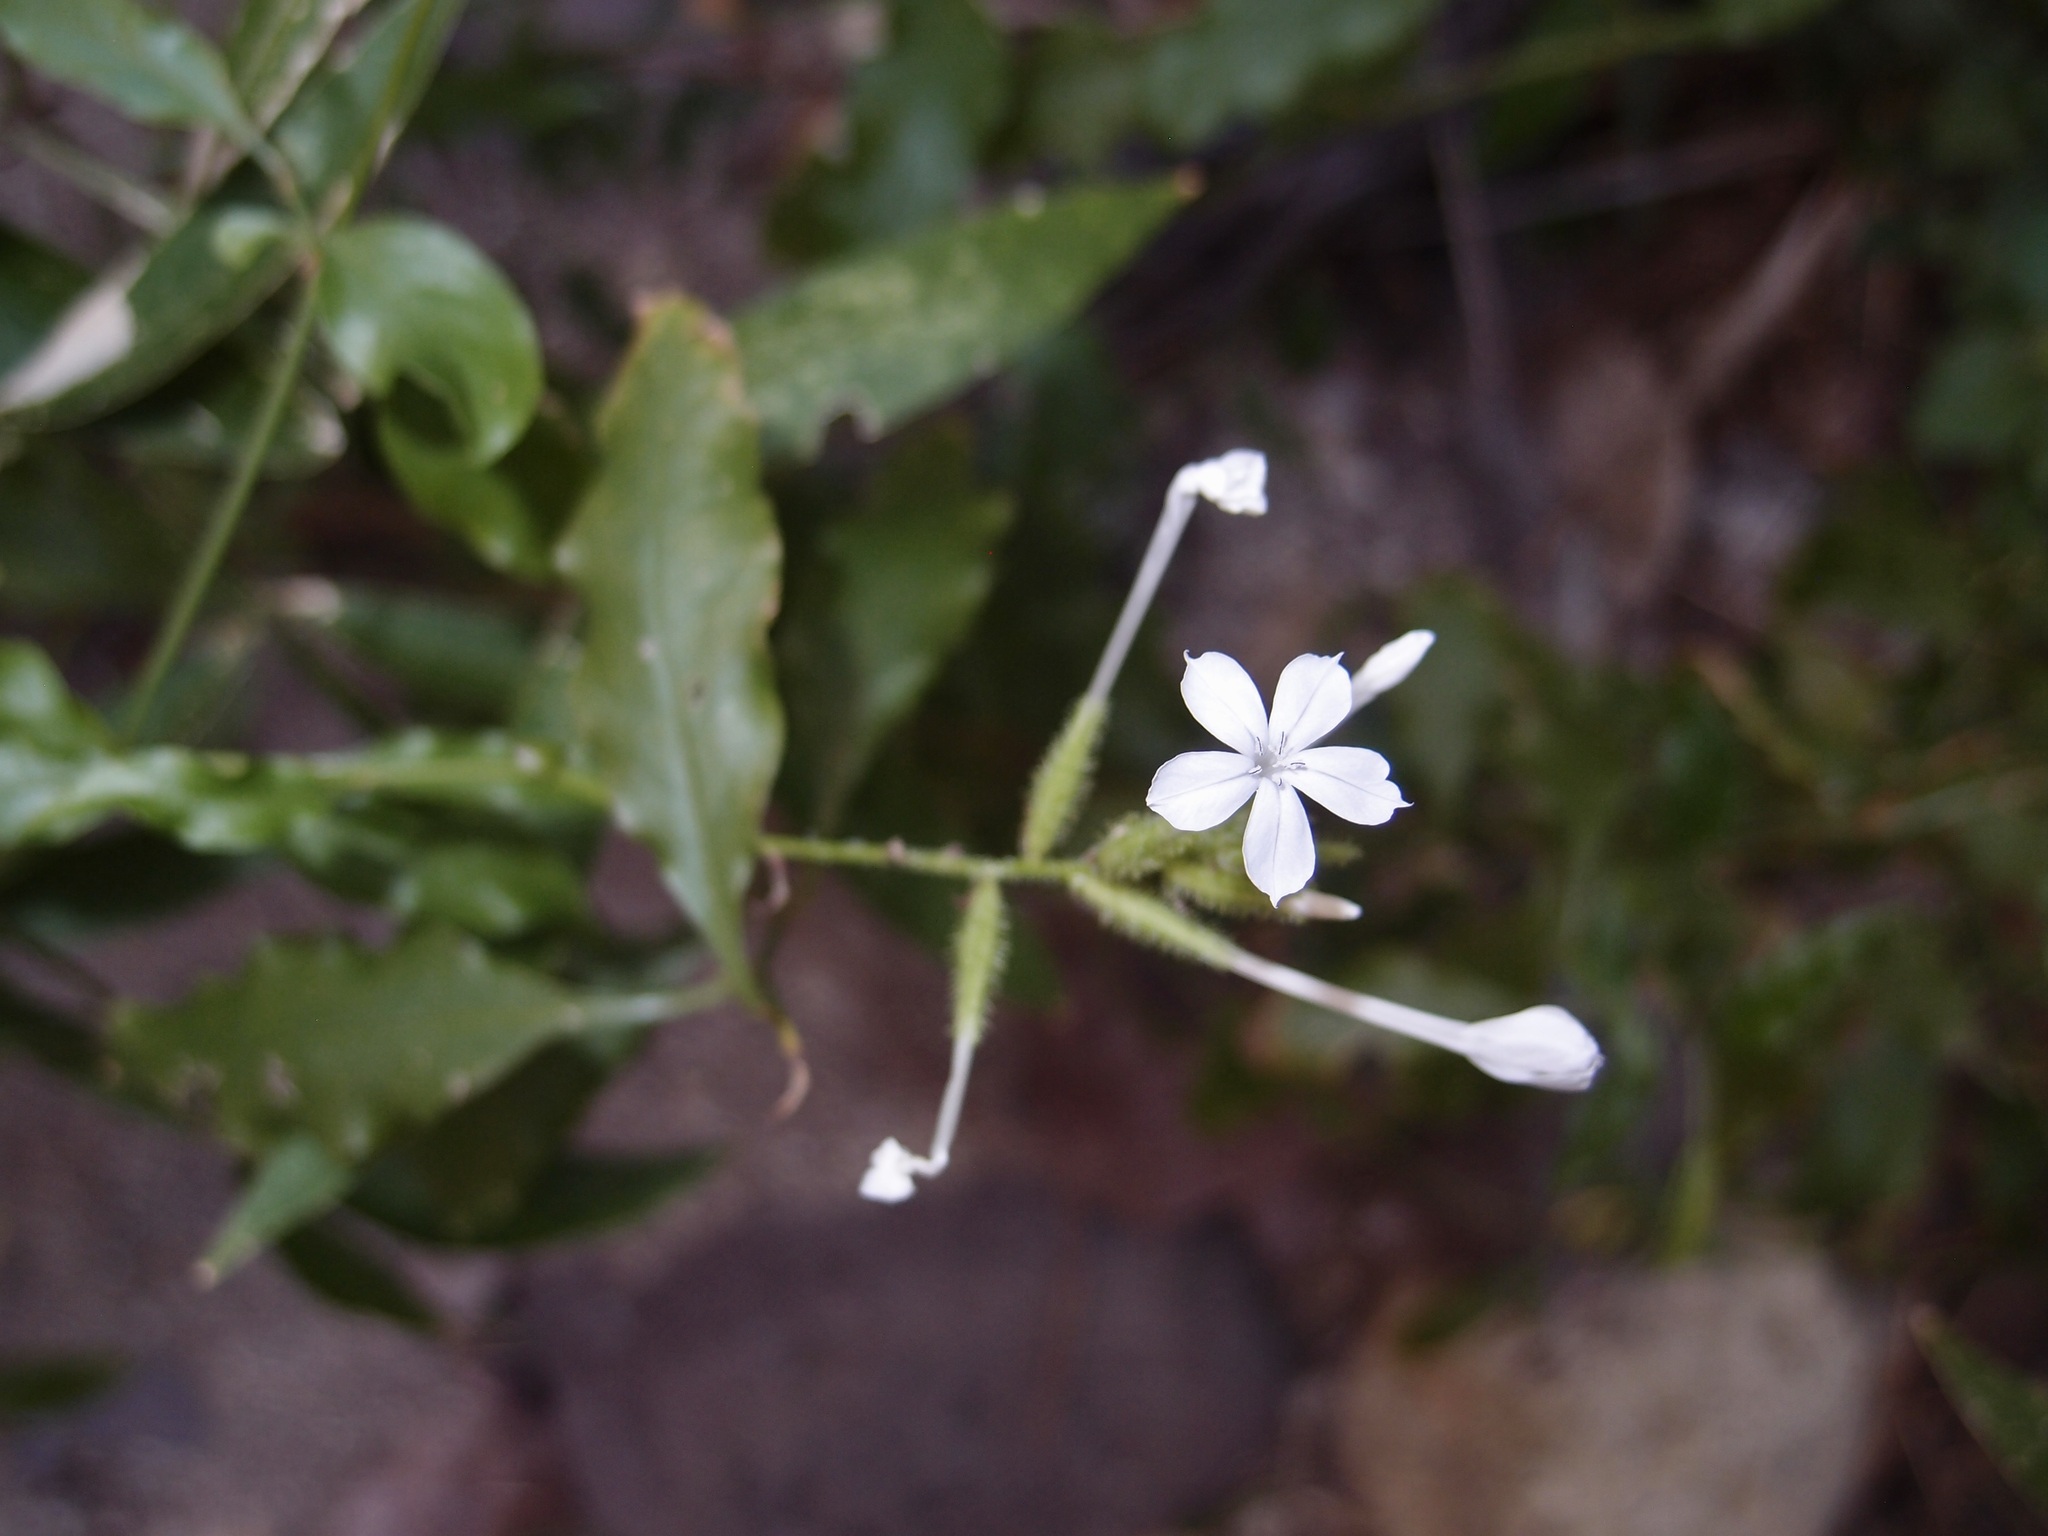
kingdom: Plantae
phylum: Tracheophyta
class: Magnoliopsida
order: Caryophyllales
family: Plumbaginaceae
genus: Plumbago
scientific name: Plumbago zeylanica
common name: Doctorbush
